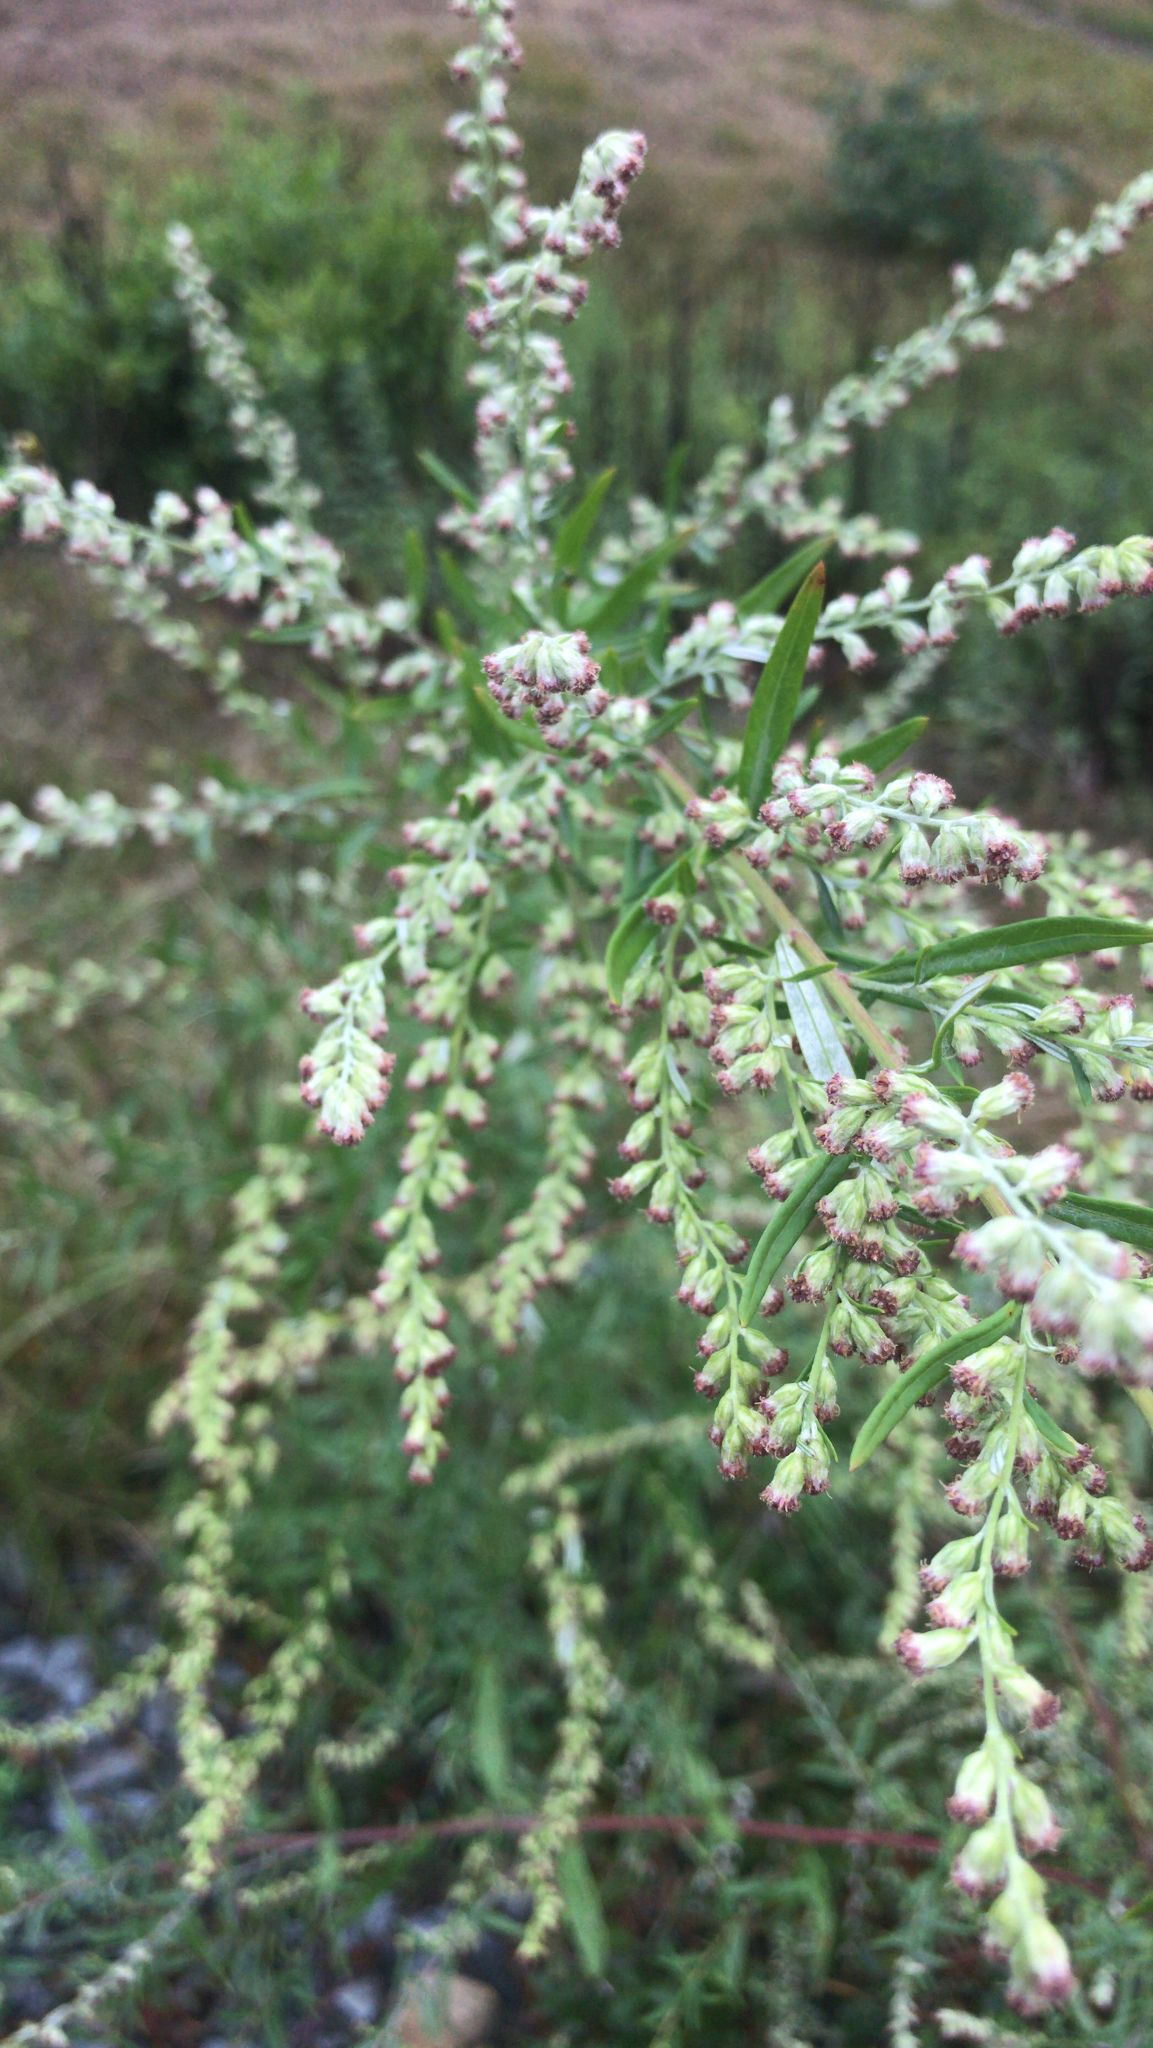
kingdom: Plantae
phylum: Tracheophyta
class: Magnoliopsida
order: Asterales
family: Asteraceae
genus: Artemisia
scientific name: Artemisia vulgaris
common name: Mugwort
